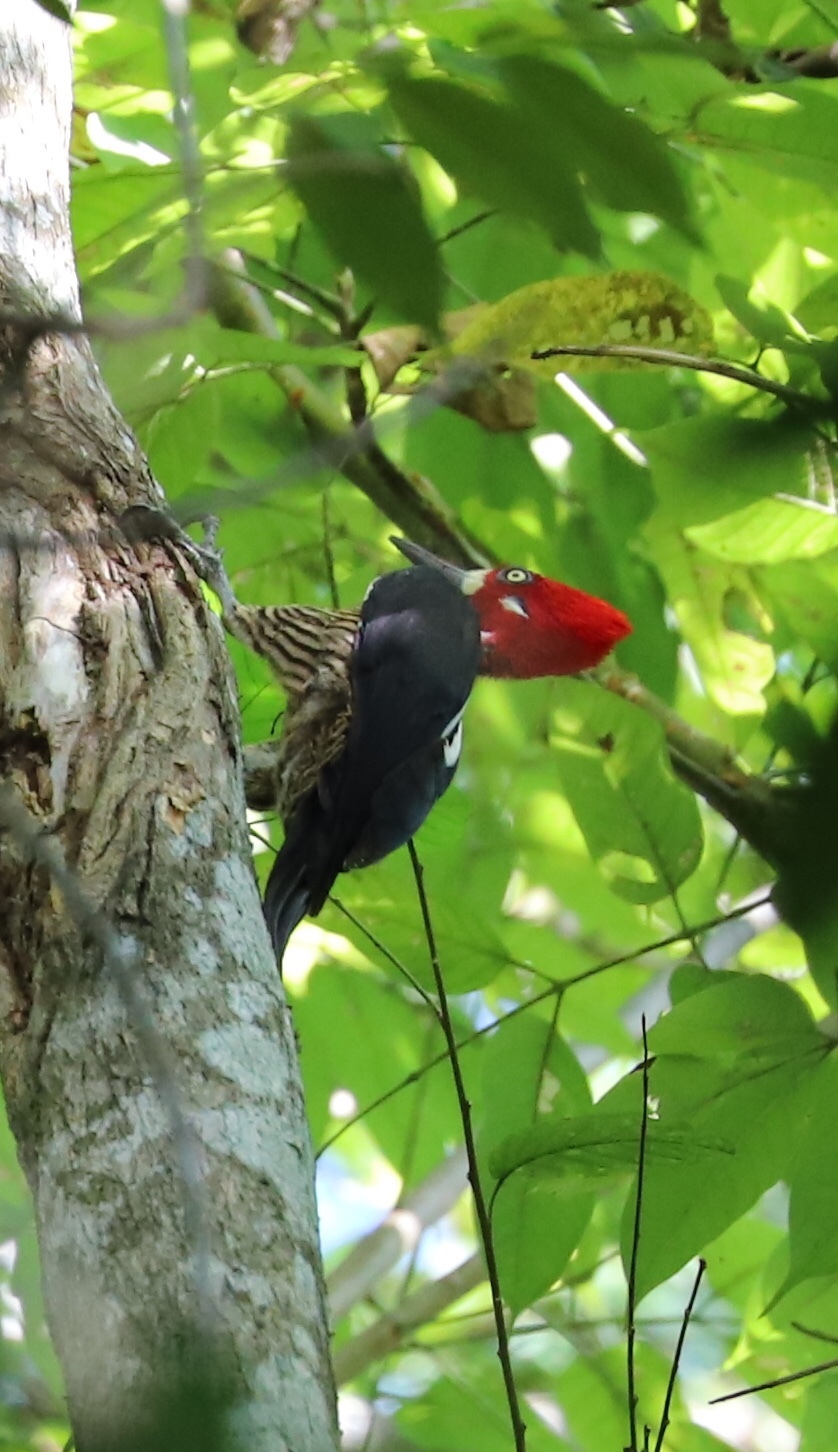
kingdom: Animalia
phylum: Chordata
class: Aves
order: Piciformes
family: Picidae
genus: Campephilus
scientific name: Campephilus melanoleucos
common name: Crimson-crested woodpecker
